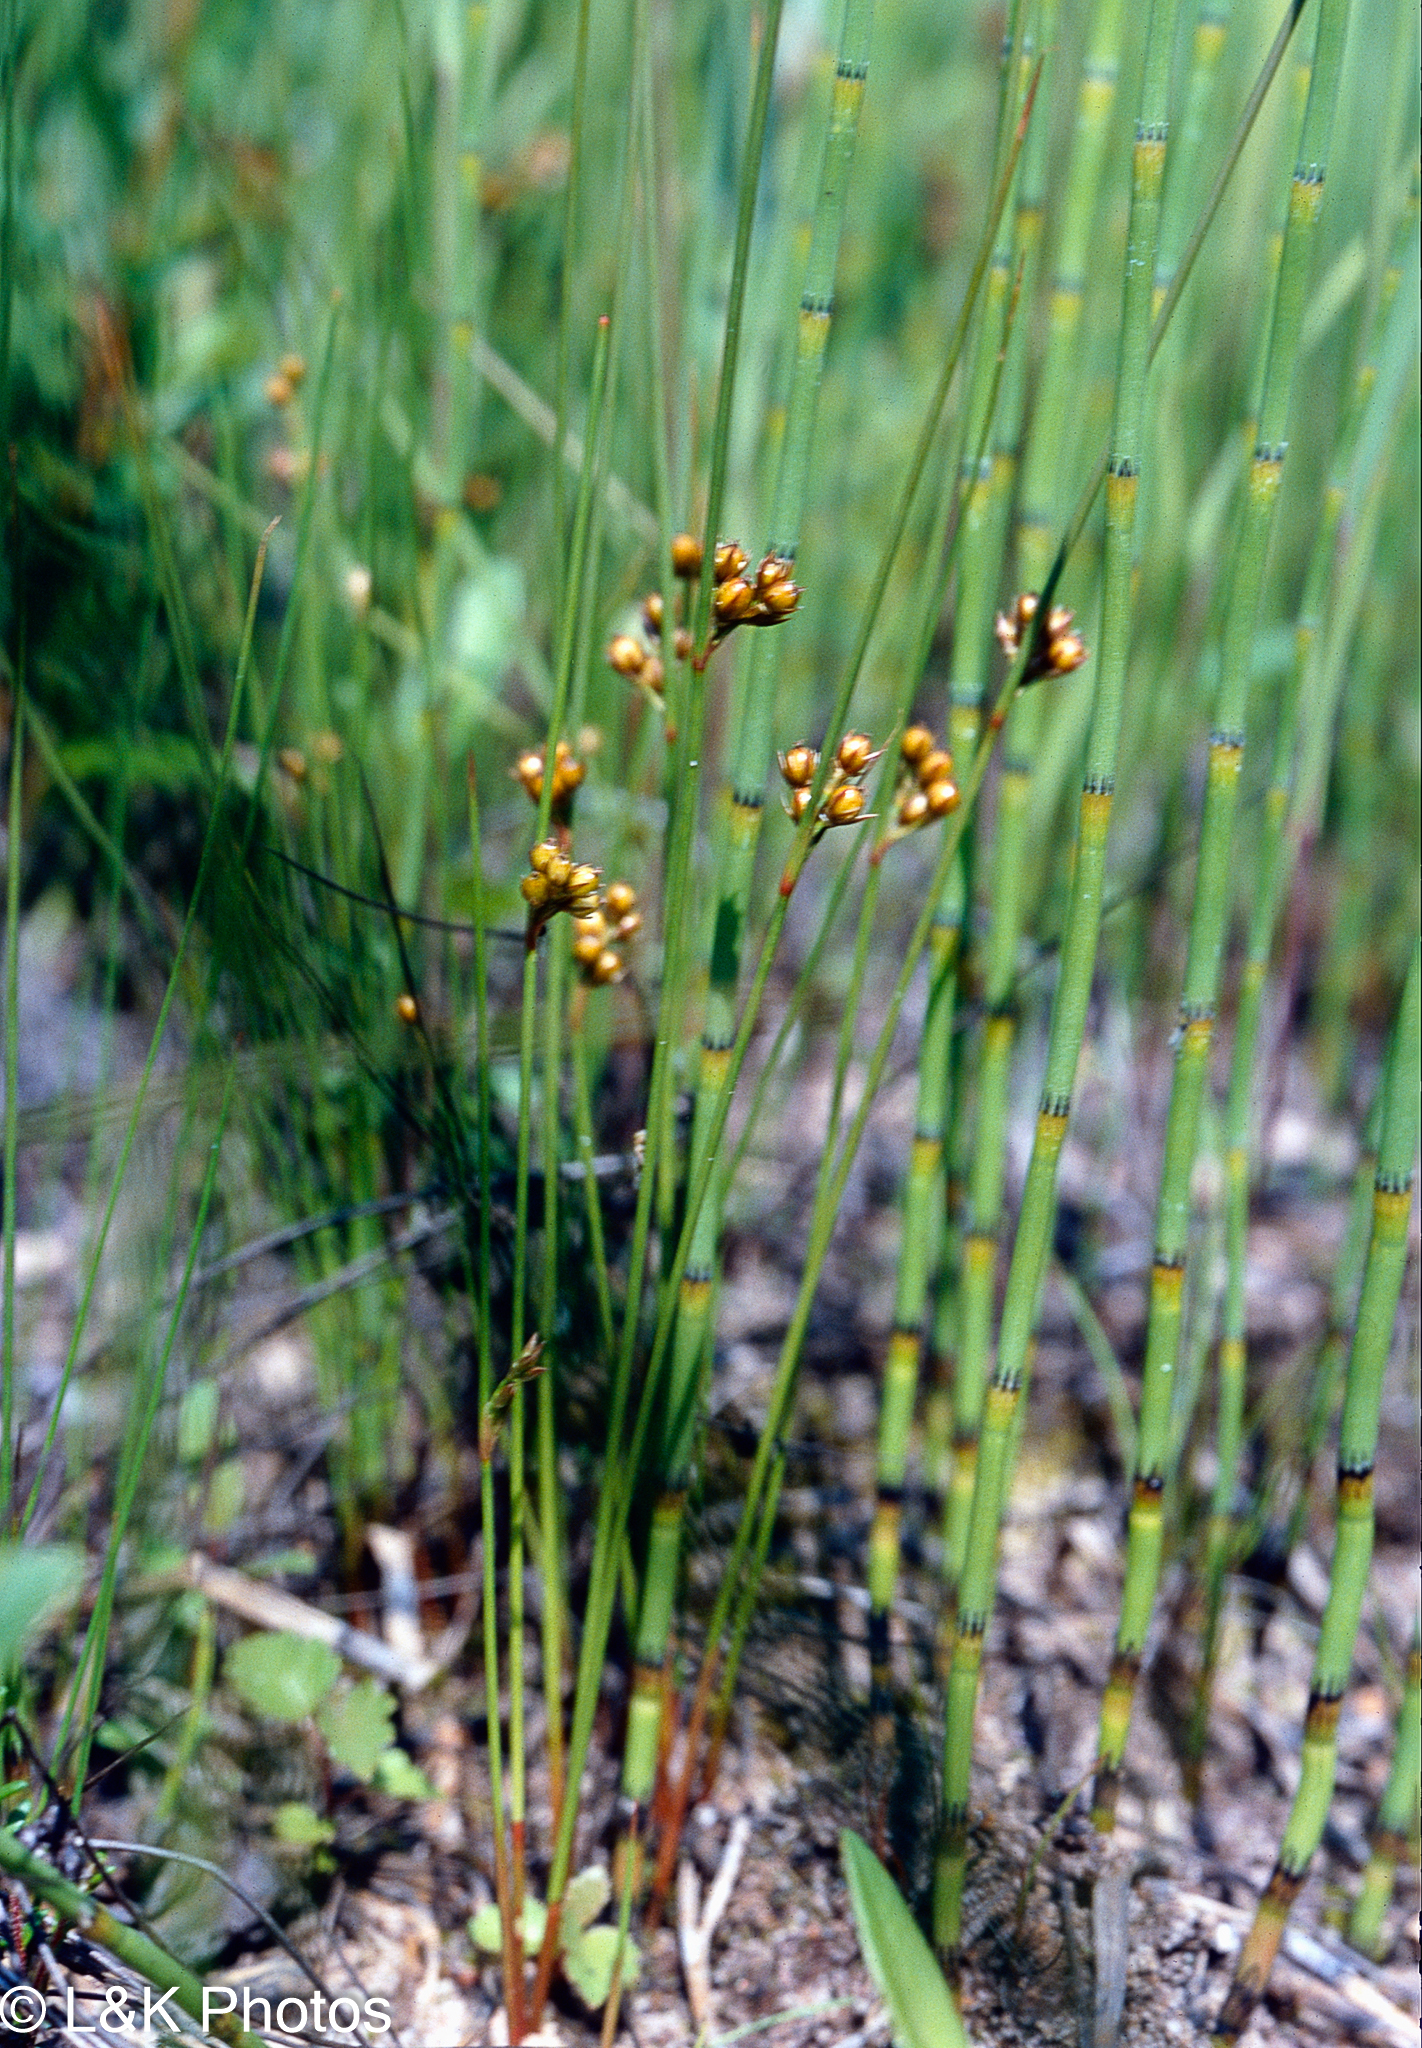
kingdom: Plantae
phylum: Tracheophyta
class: Liliopsida
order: Poales
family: Juncaceae
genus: Juncus
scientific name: Juncus filiformis
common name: Thread rush
